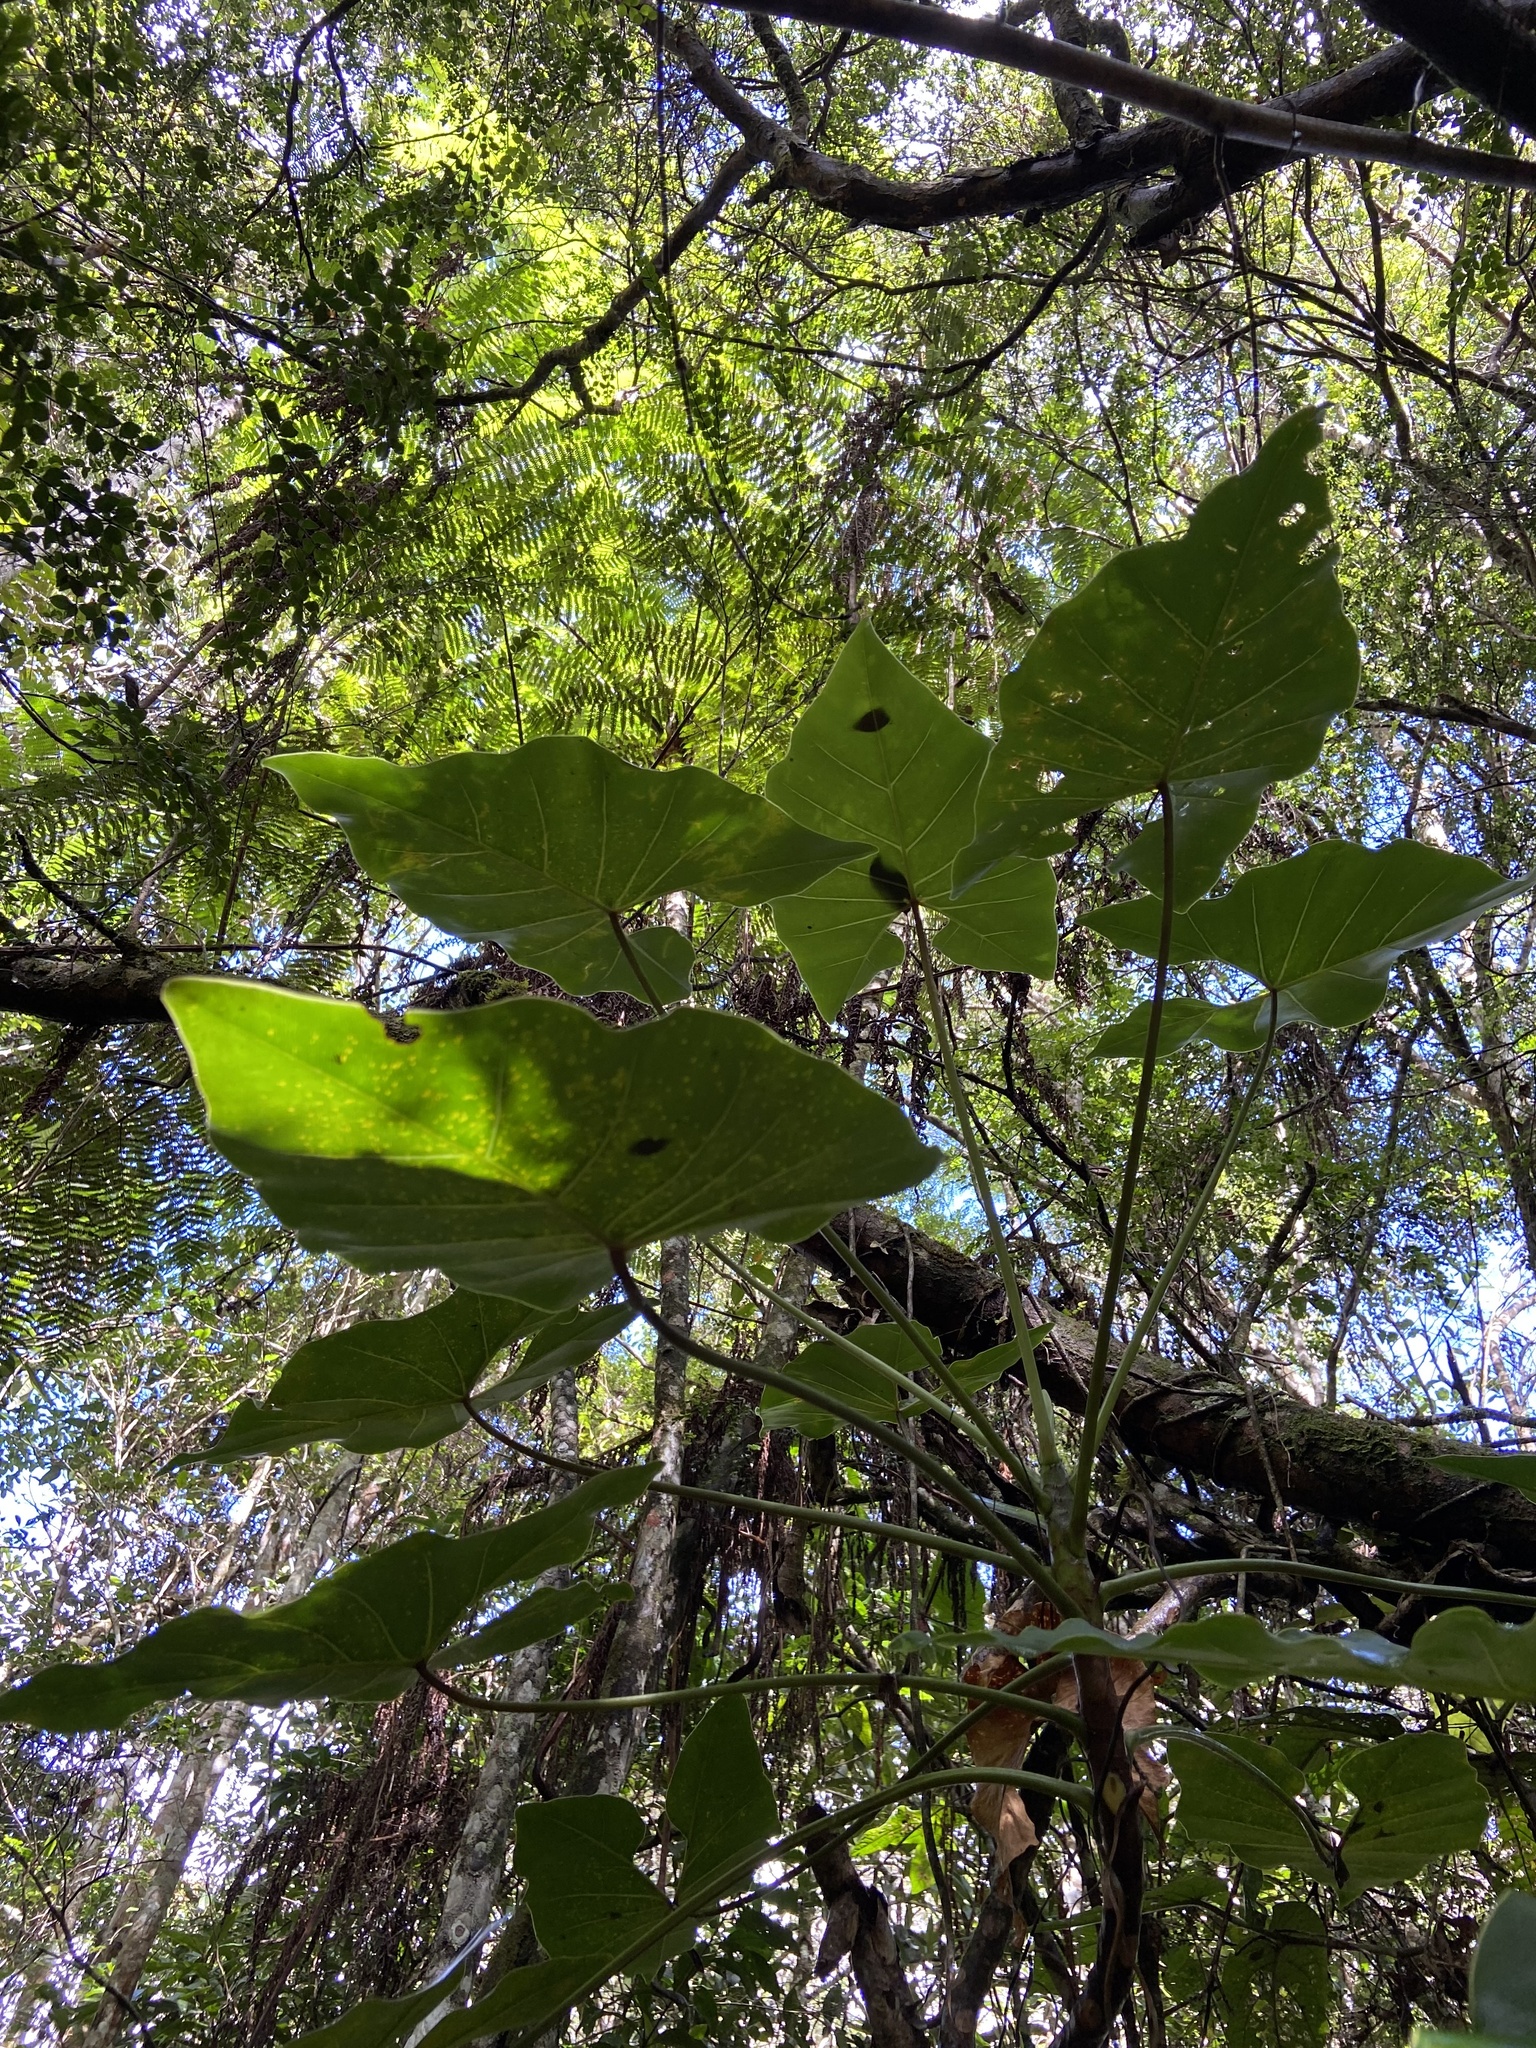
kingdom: Plantae
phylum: Tracheophyta
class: Liliopsida
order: Alismatales
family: Araceae
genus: Thaumatophyllum
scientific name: Thaumatophyllum corcovadense
